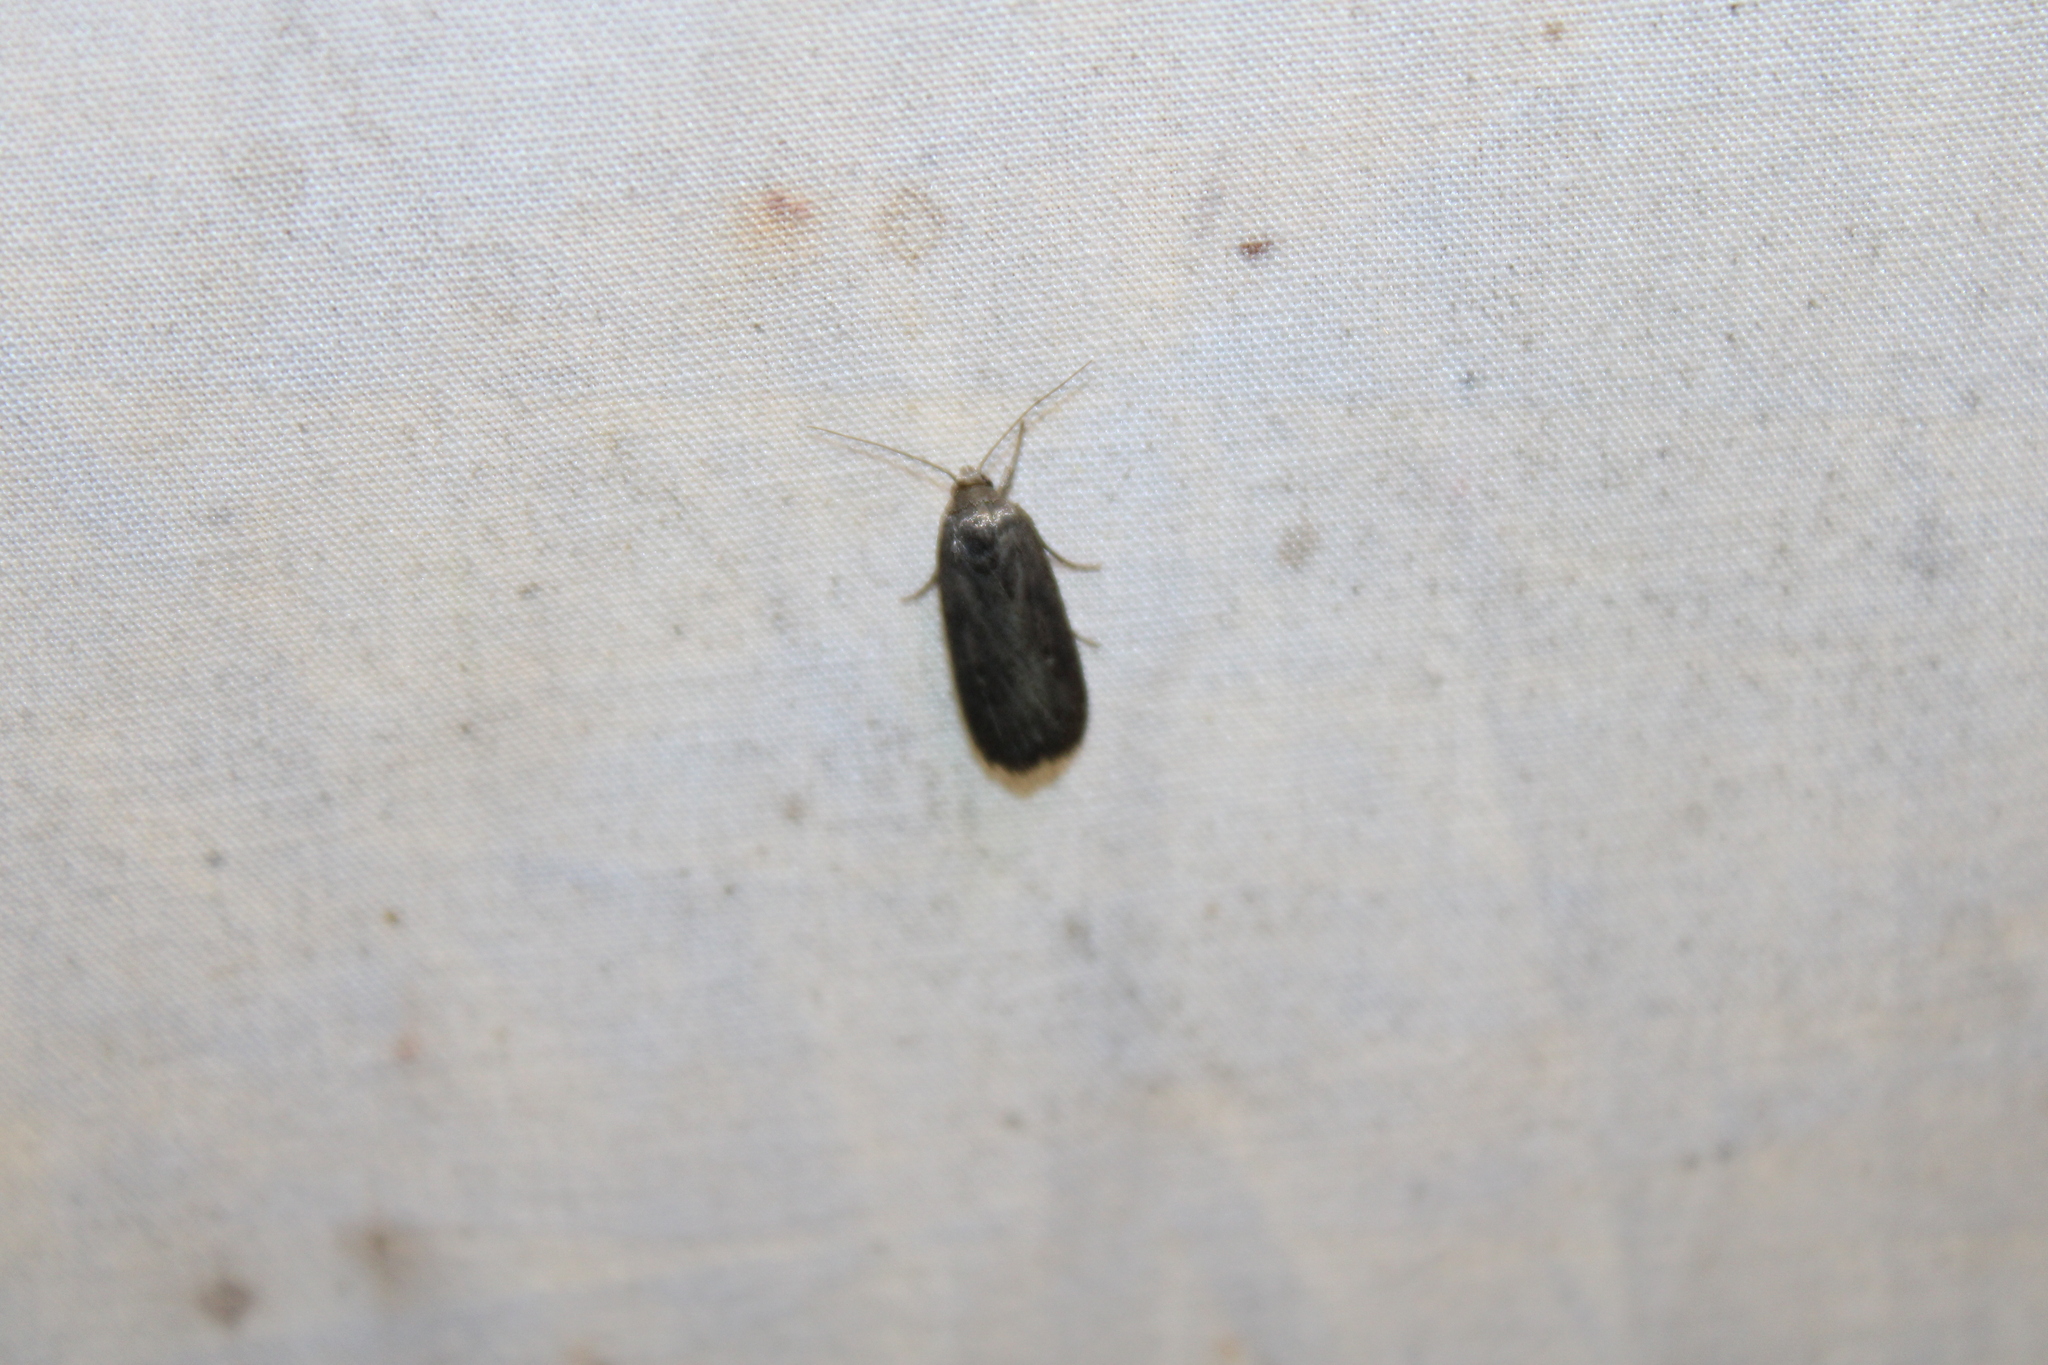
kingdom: Animalia
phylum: Arthropoda
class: Insecta
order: Lepidoptera
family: Noctuidae
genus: Proxenus
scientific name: Proxenus miranda
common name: Miranda moth
